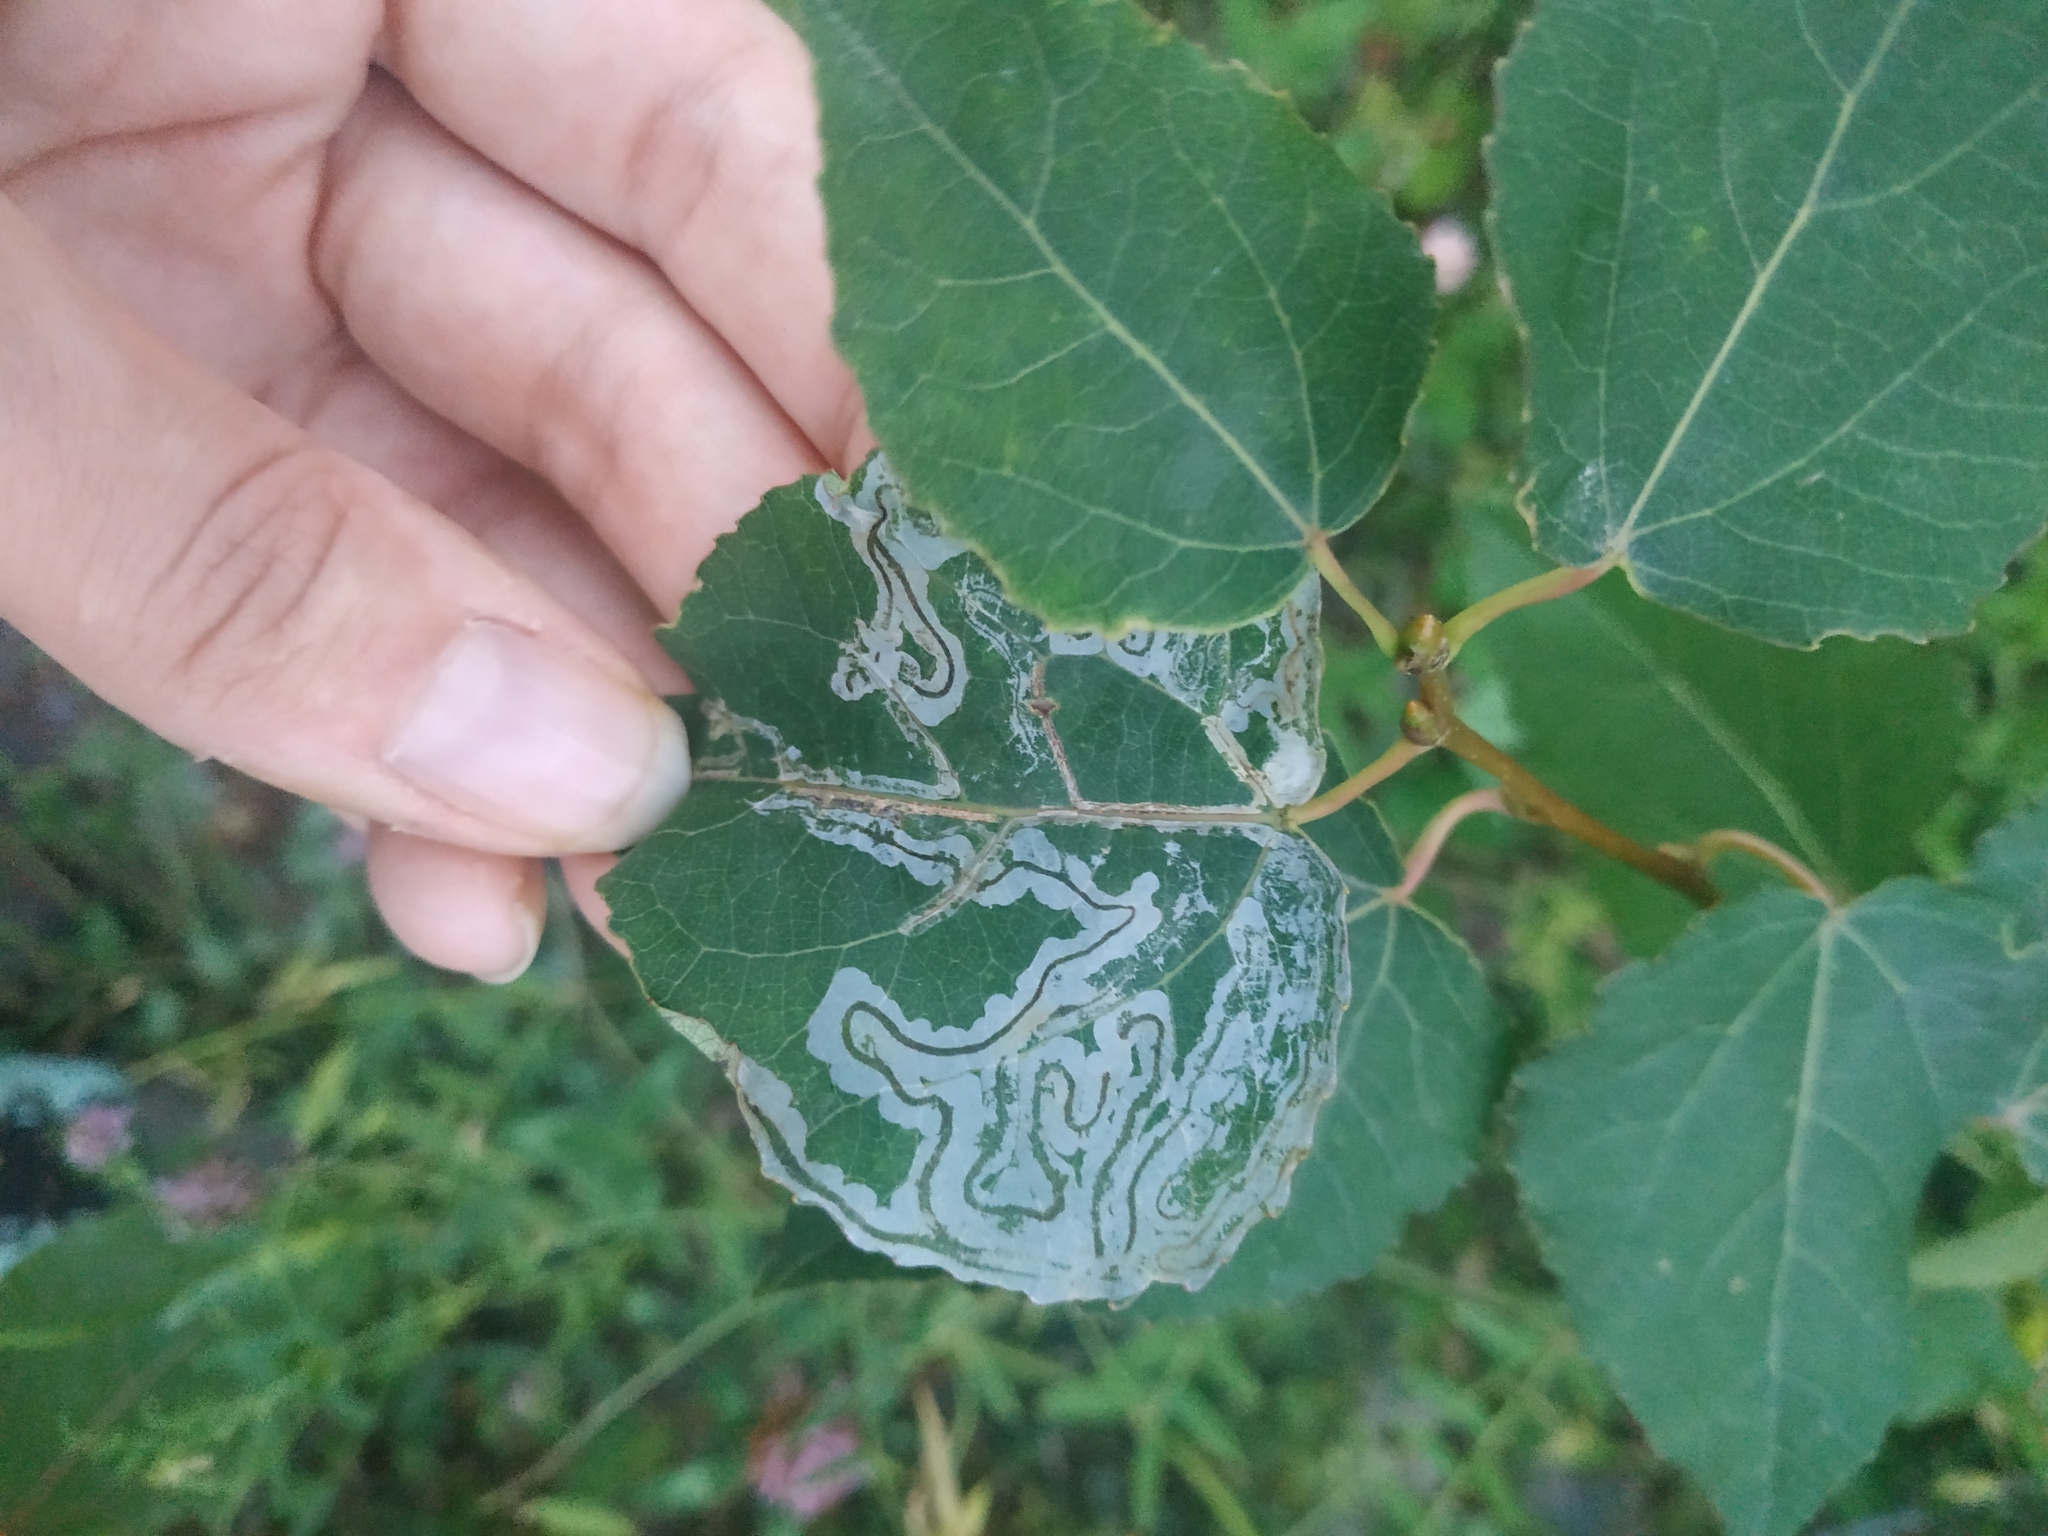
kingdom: Plantae
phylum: Tracheophyta
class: Magnoliopsida
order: Malpighiales
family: Salicaceae
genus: Populus
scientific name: Populus tremula
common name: European aspen
